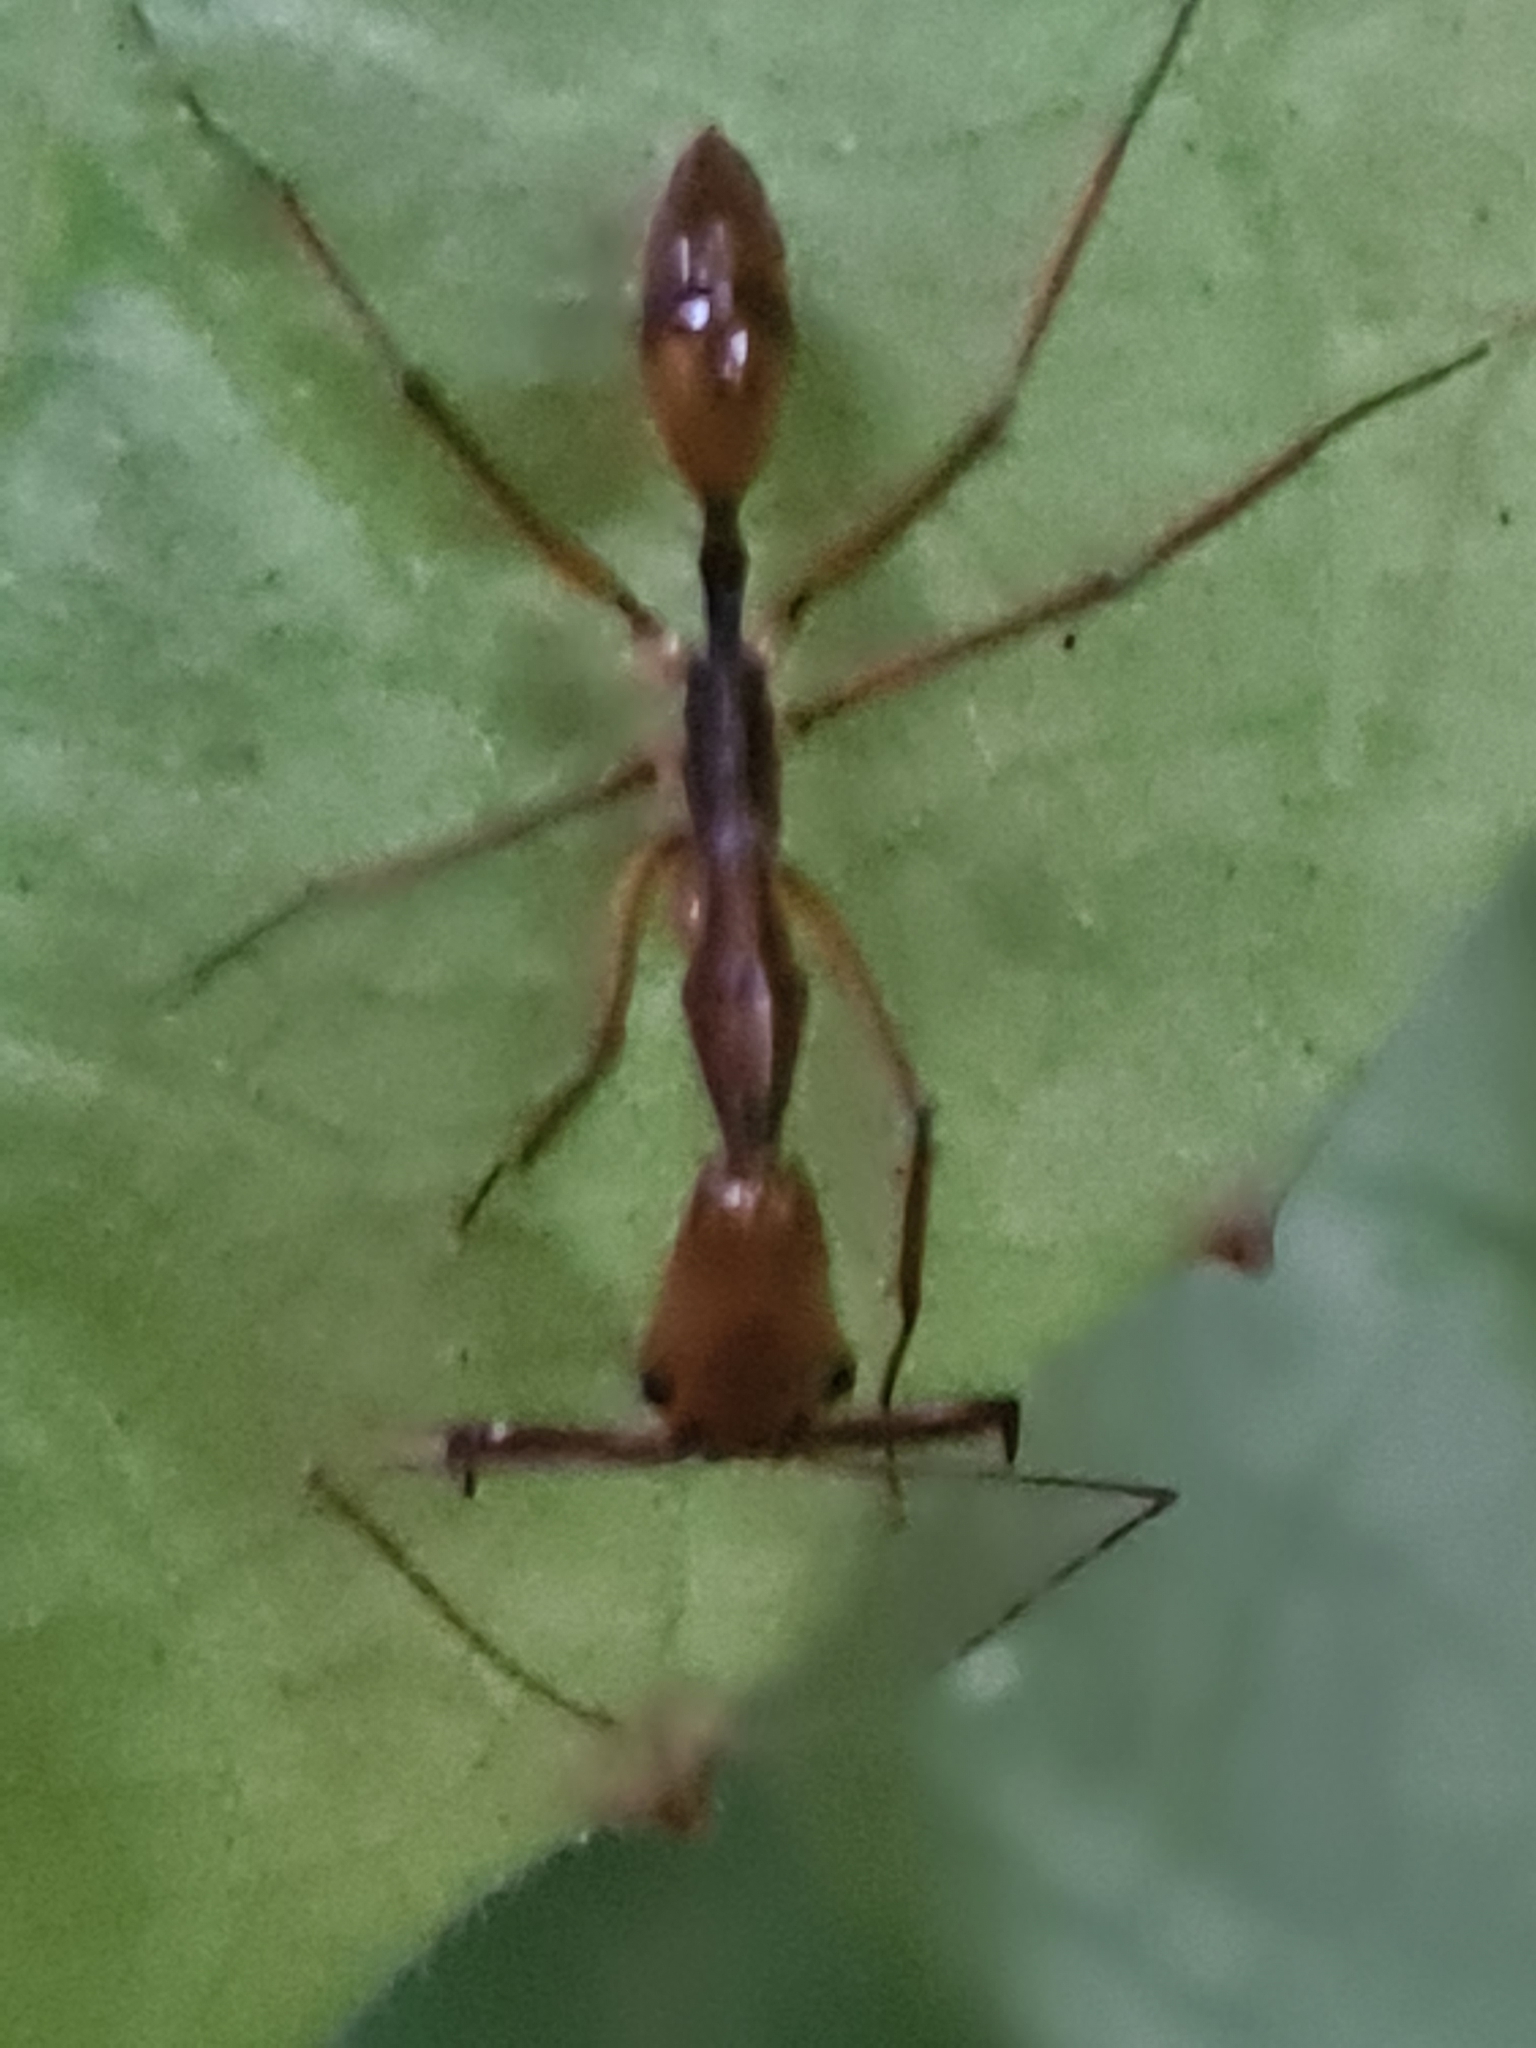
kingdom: Animalia
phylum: Arthropoda
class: Insecta
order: Hymenoptera
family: Formicidae
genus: Odontomachus
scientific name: Odontomachus hastatus
